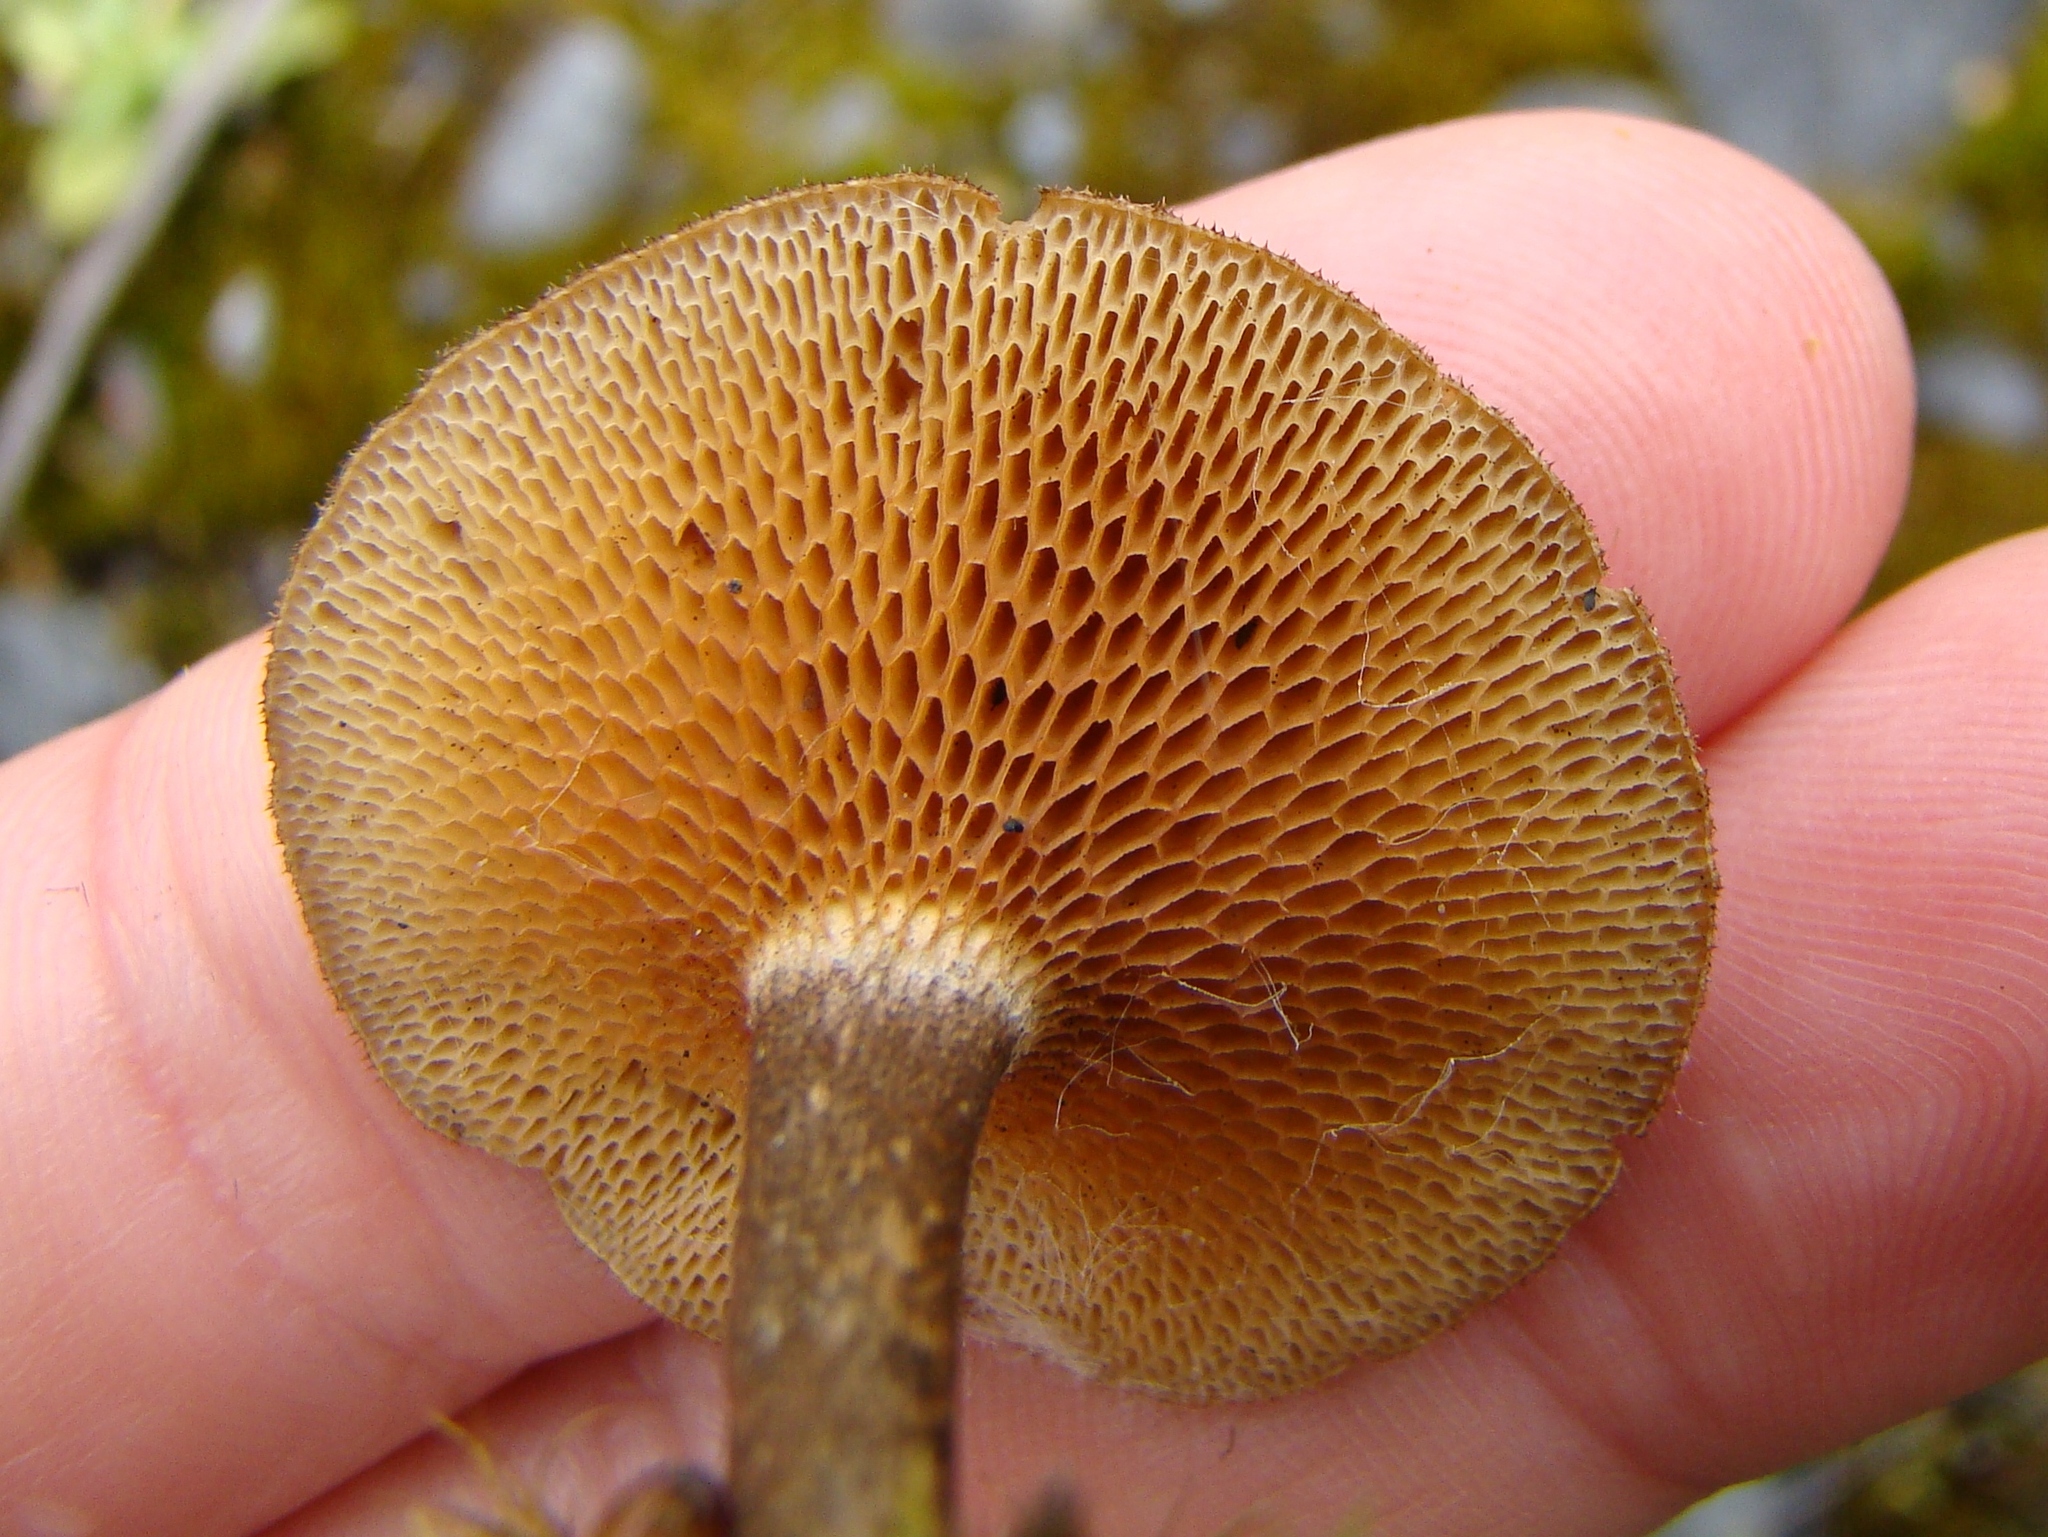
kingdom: Fungi
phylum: Basidiomycota
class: Agaricomycetes
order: Polyporales
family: Polyporaceae
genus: Lentinus
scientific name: Lentinus arcularius
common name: Spring polypore
